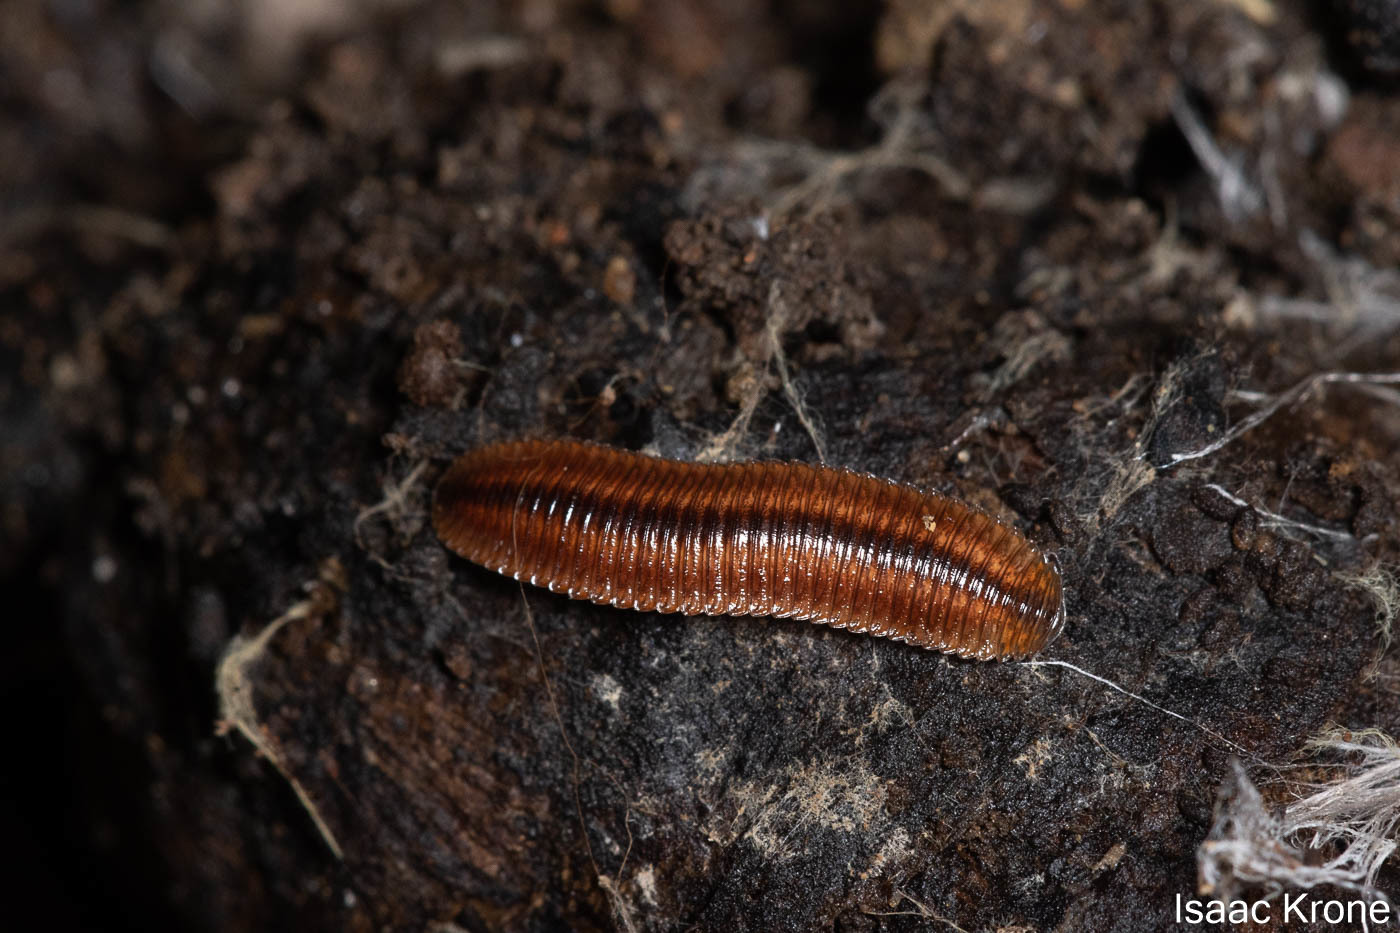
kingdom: Animalia
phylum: Arthropoda
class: Diplopoda
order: Polyzoniida
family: Hirudisomatidae
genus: Octoglena
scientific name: Octoglena bivirgatum
